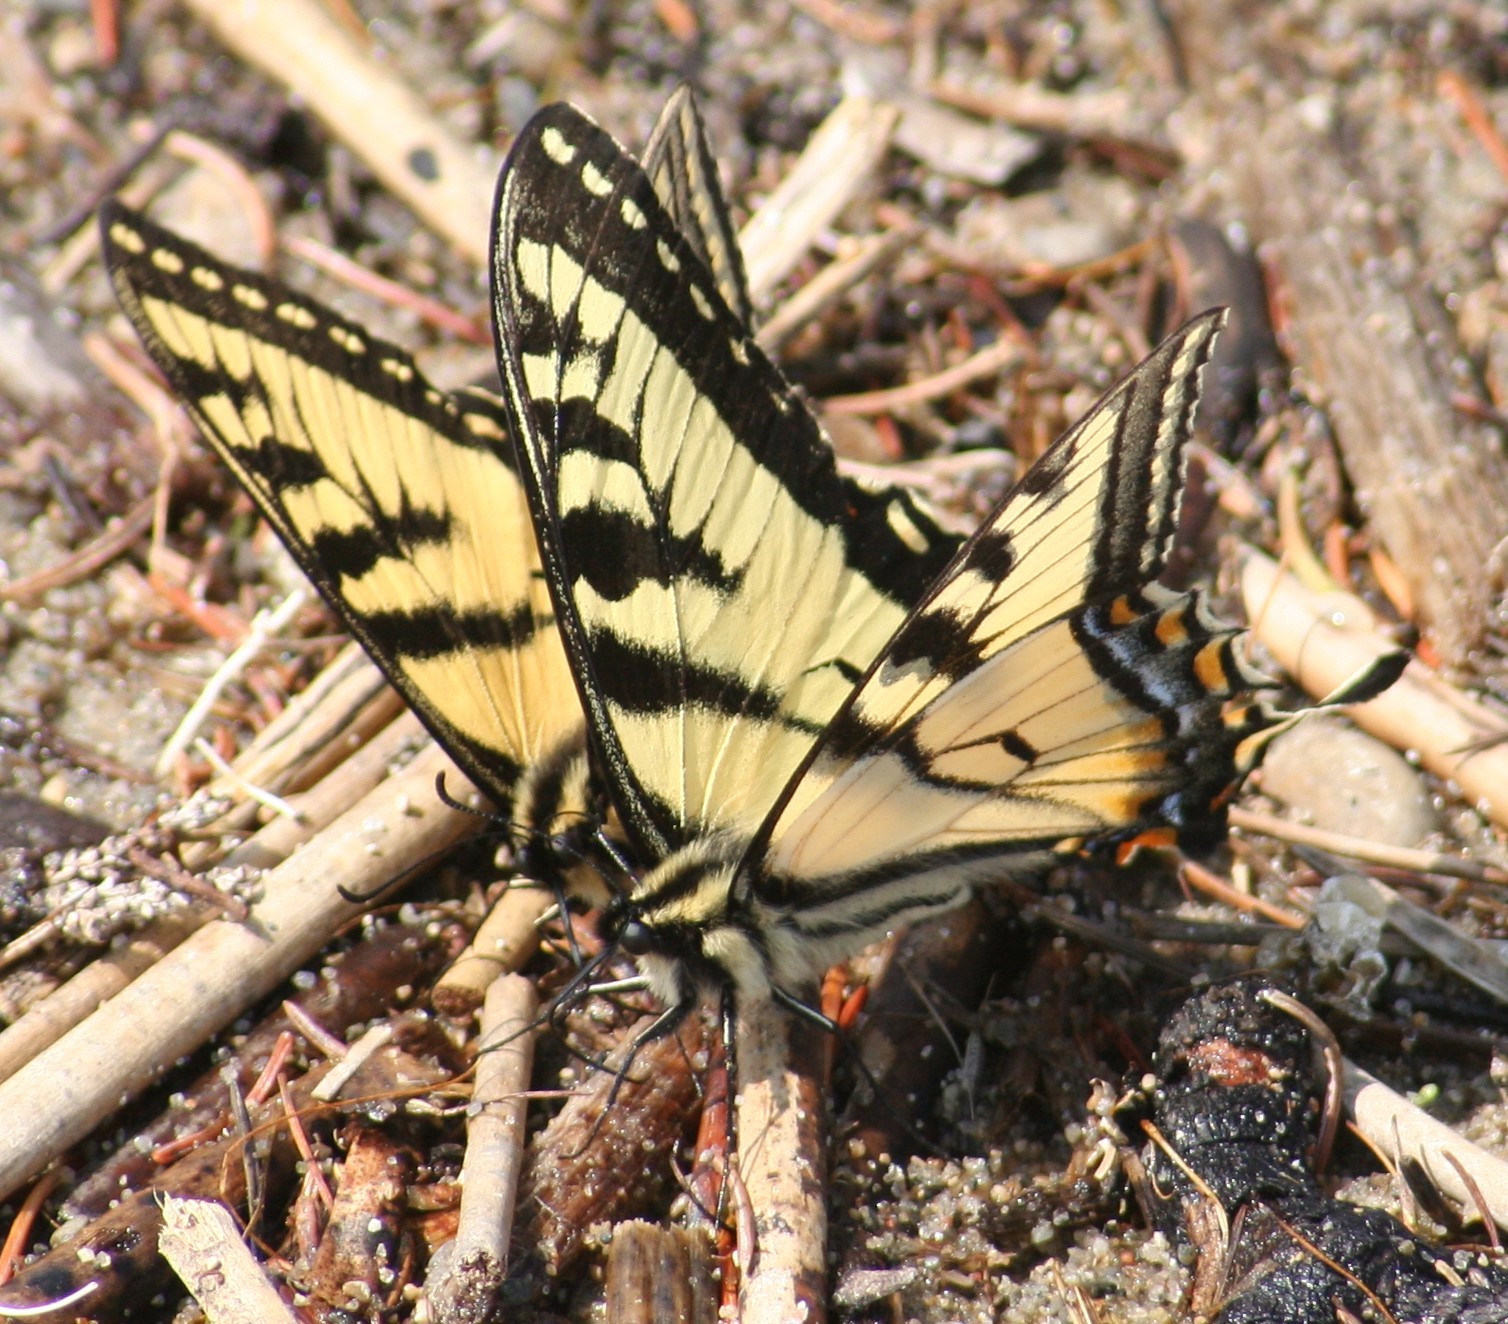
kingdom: Animalia
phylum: Arthropoda
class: Insecta
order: Lepidoptera
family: Papilionidae
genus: Papilio
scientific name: Papilio canadensis
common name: Canadian tiger swallowtail
